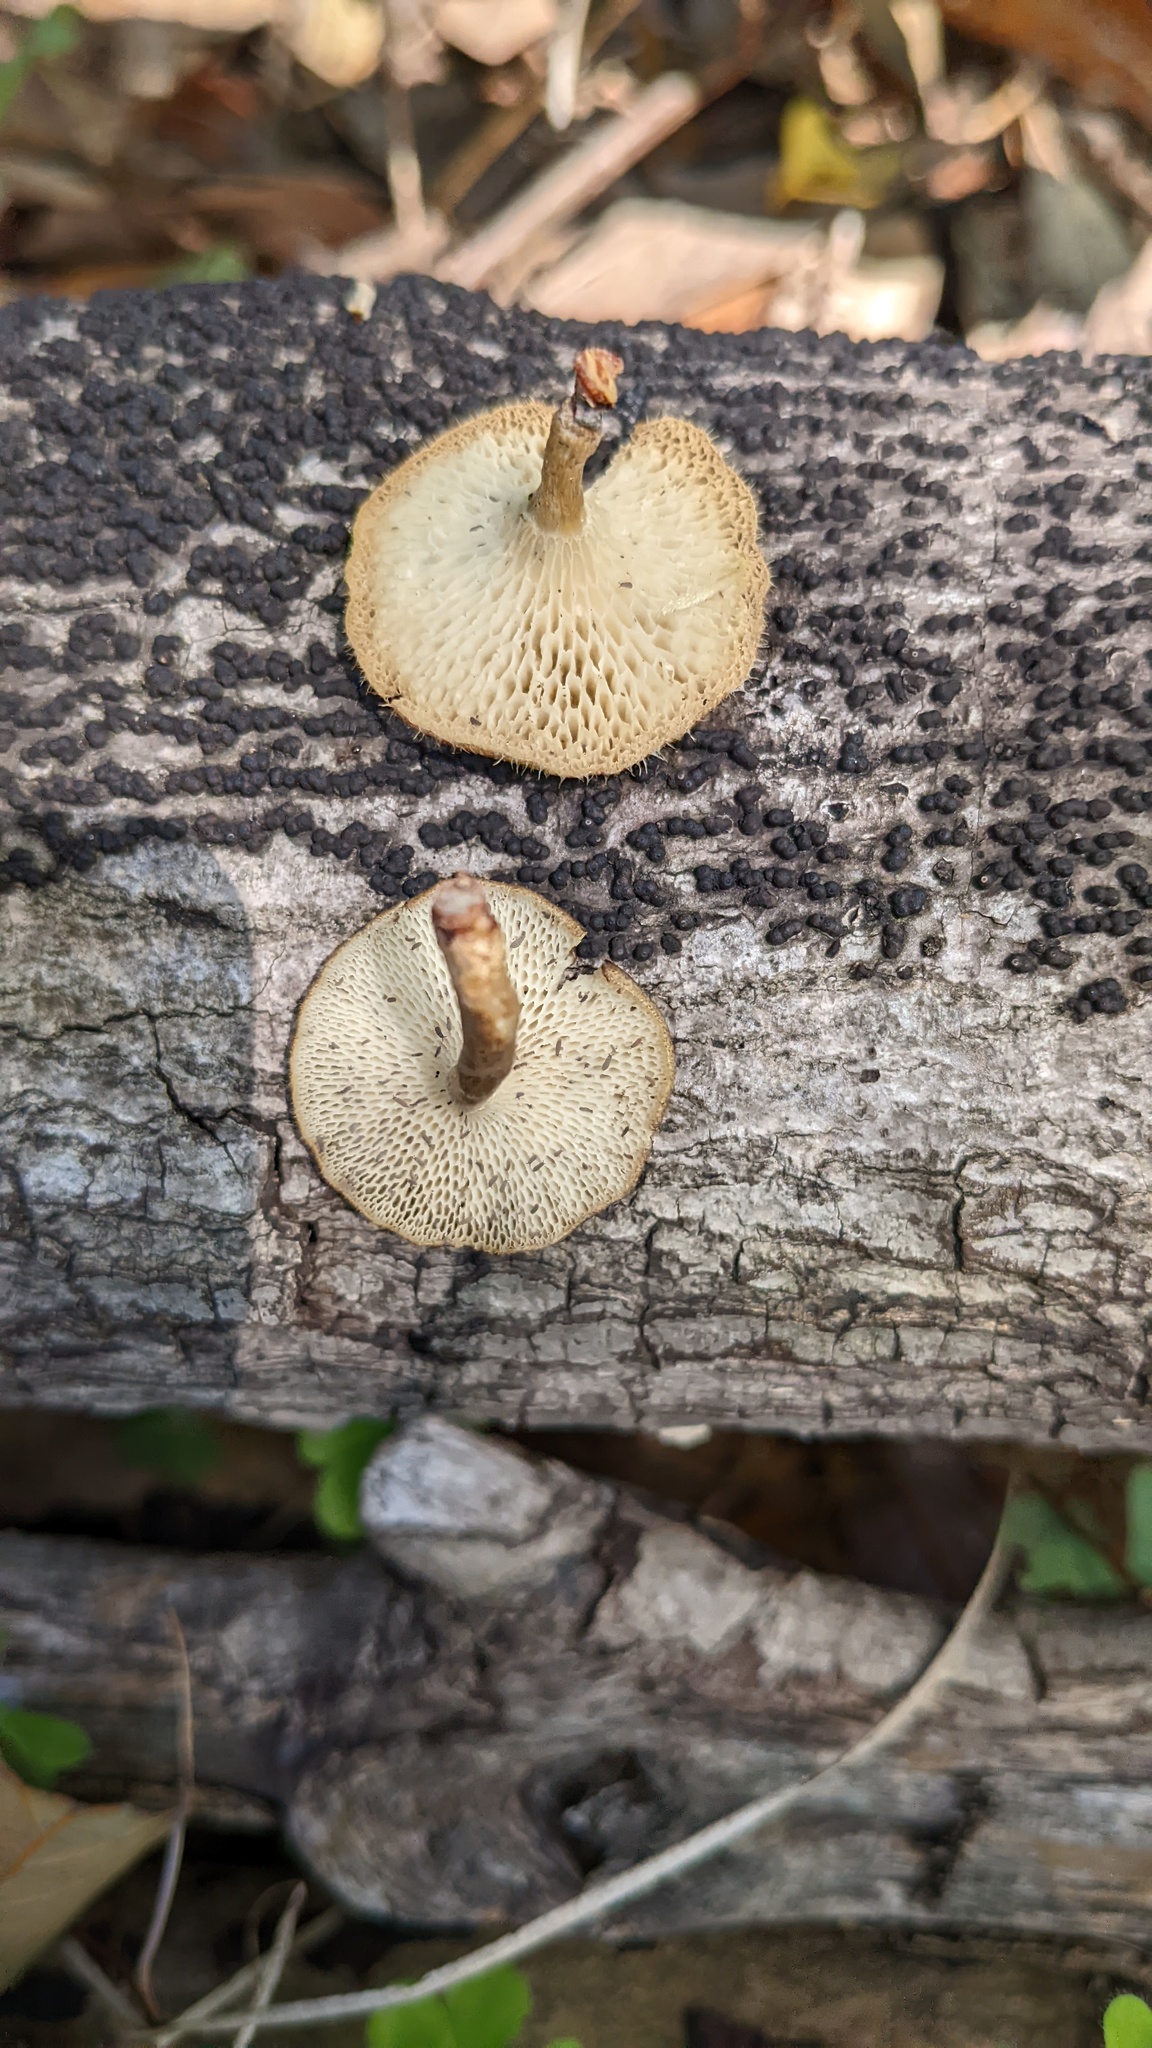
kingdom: Fungi
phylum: Basidiomycota
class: Agaricomycetes
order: Polyporales
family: Polyporaceae
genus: Lentinus
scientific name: Lentinus arcularius
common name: Spring polypore
